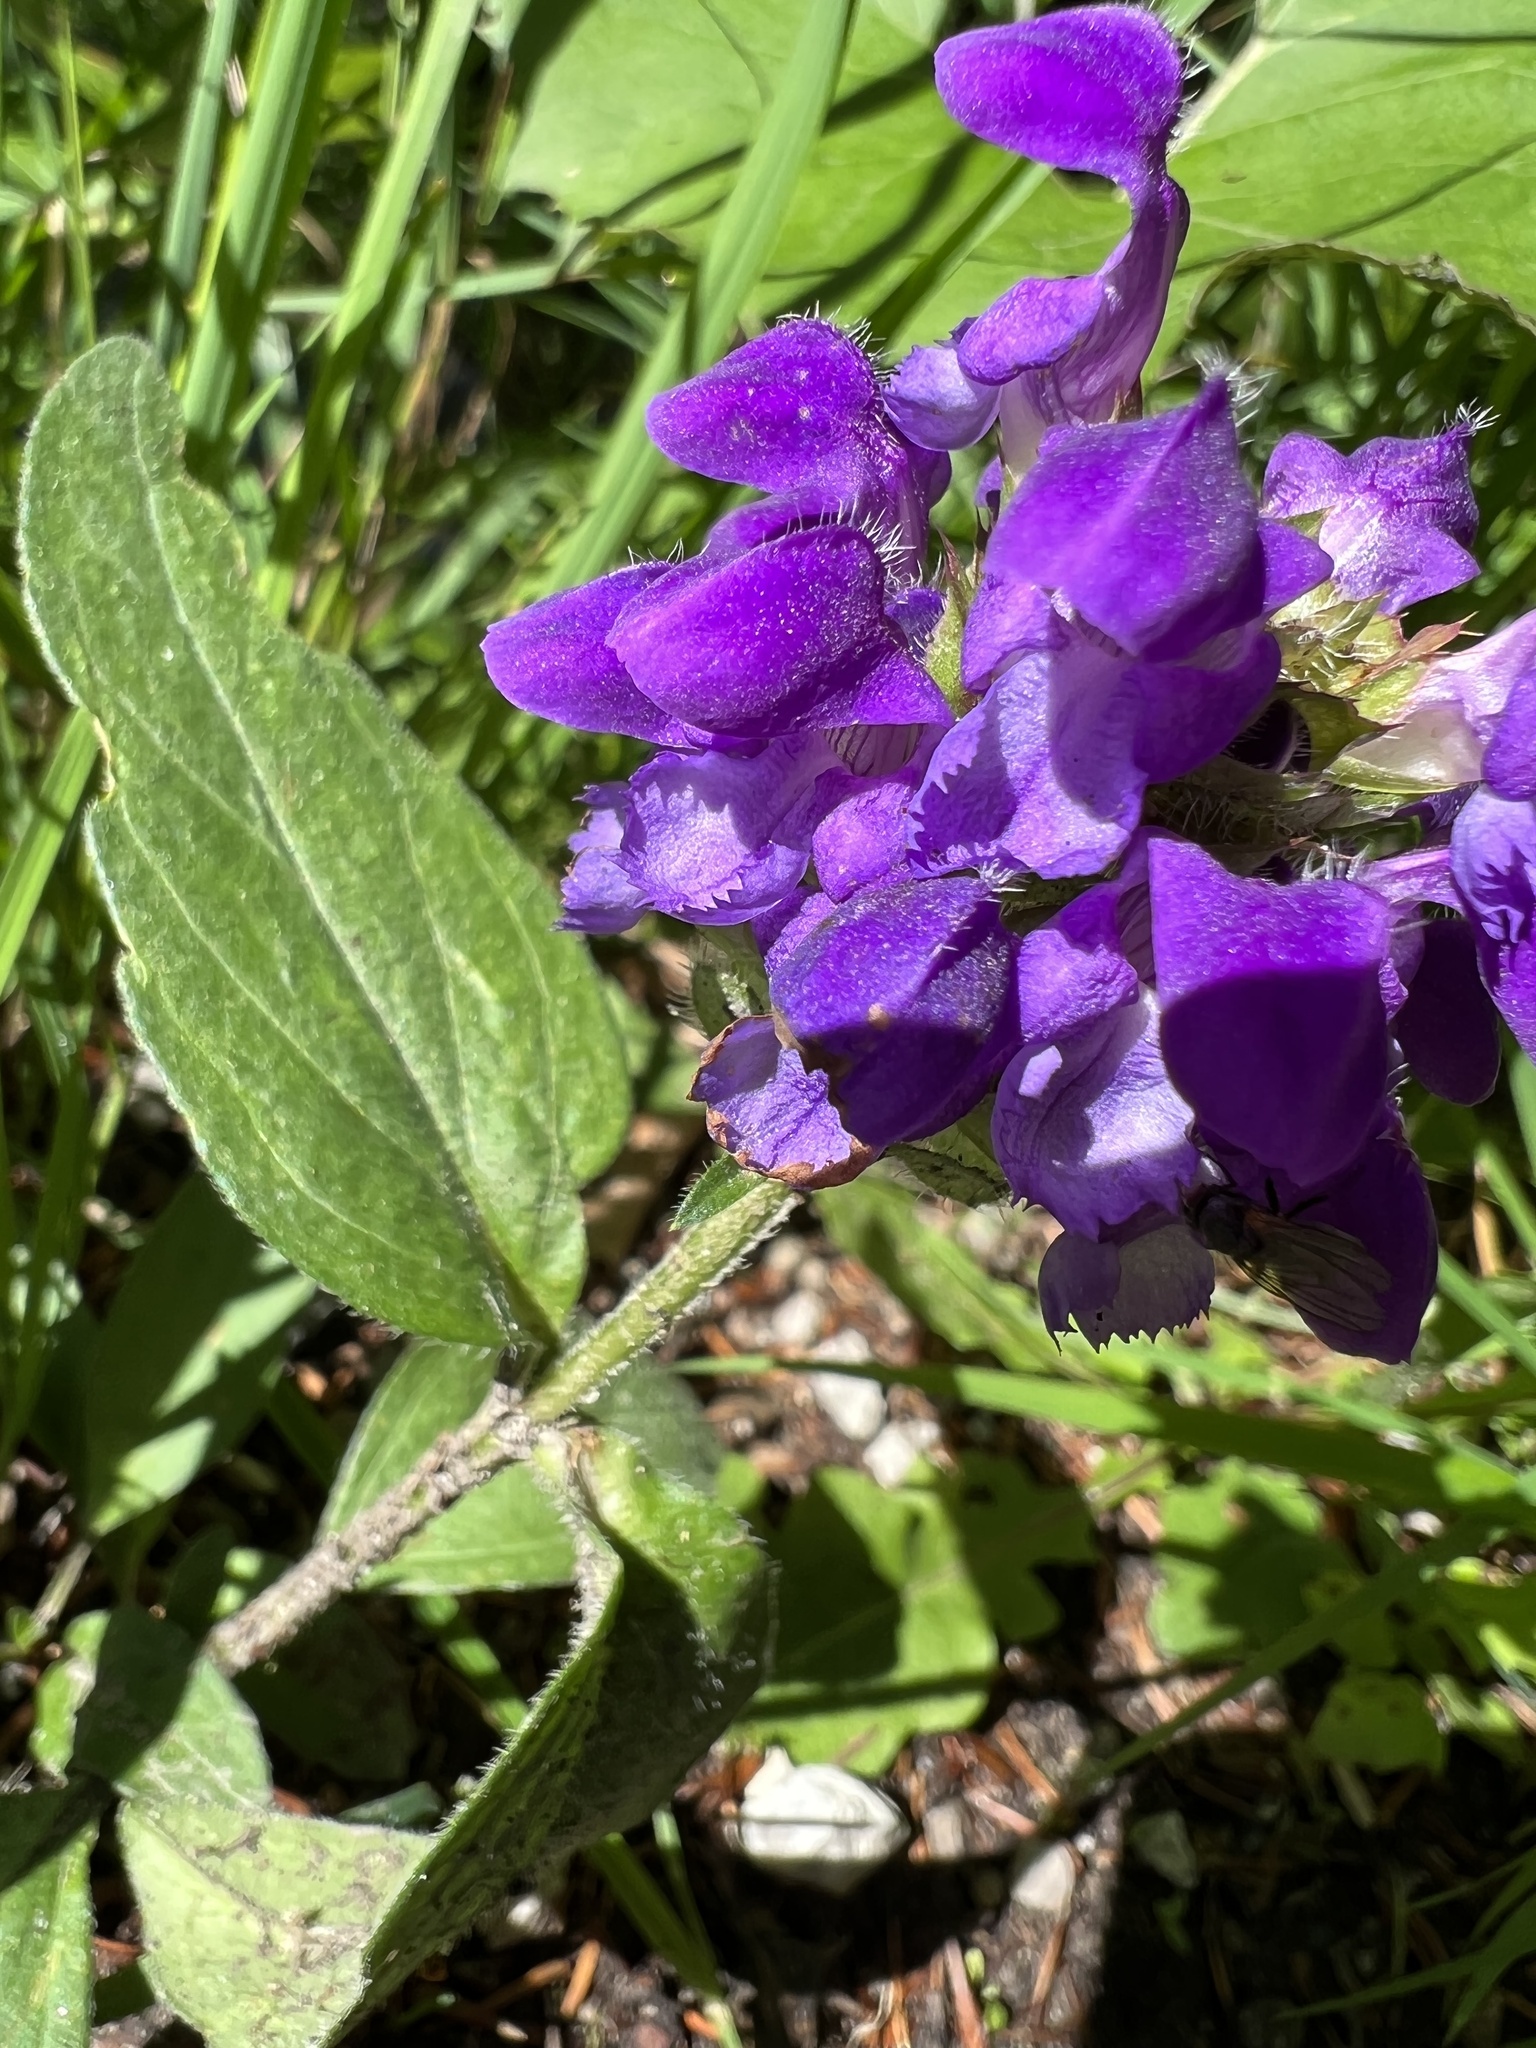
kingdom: Plantae
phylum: Tracheophyta
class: Magnoliopsida
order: Lamiales
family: Lamiaceae
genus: Prunella
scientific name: Prunella grandiflora
